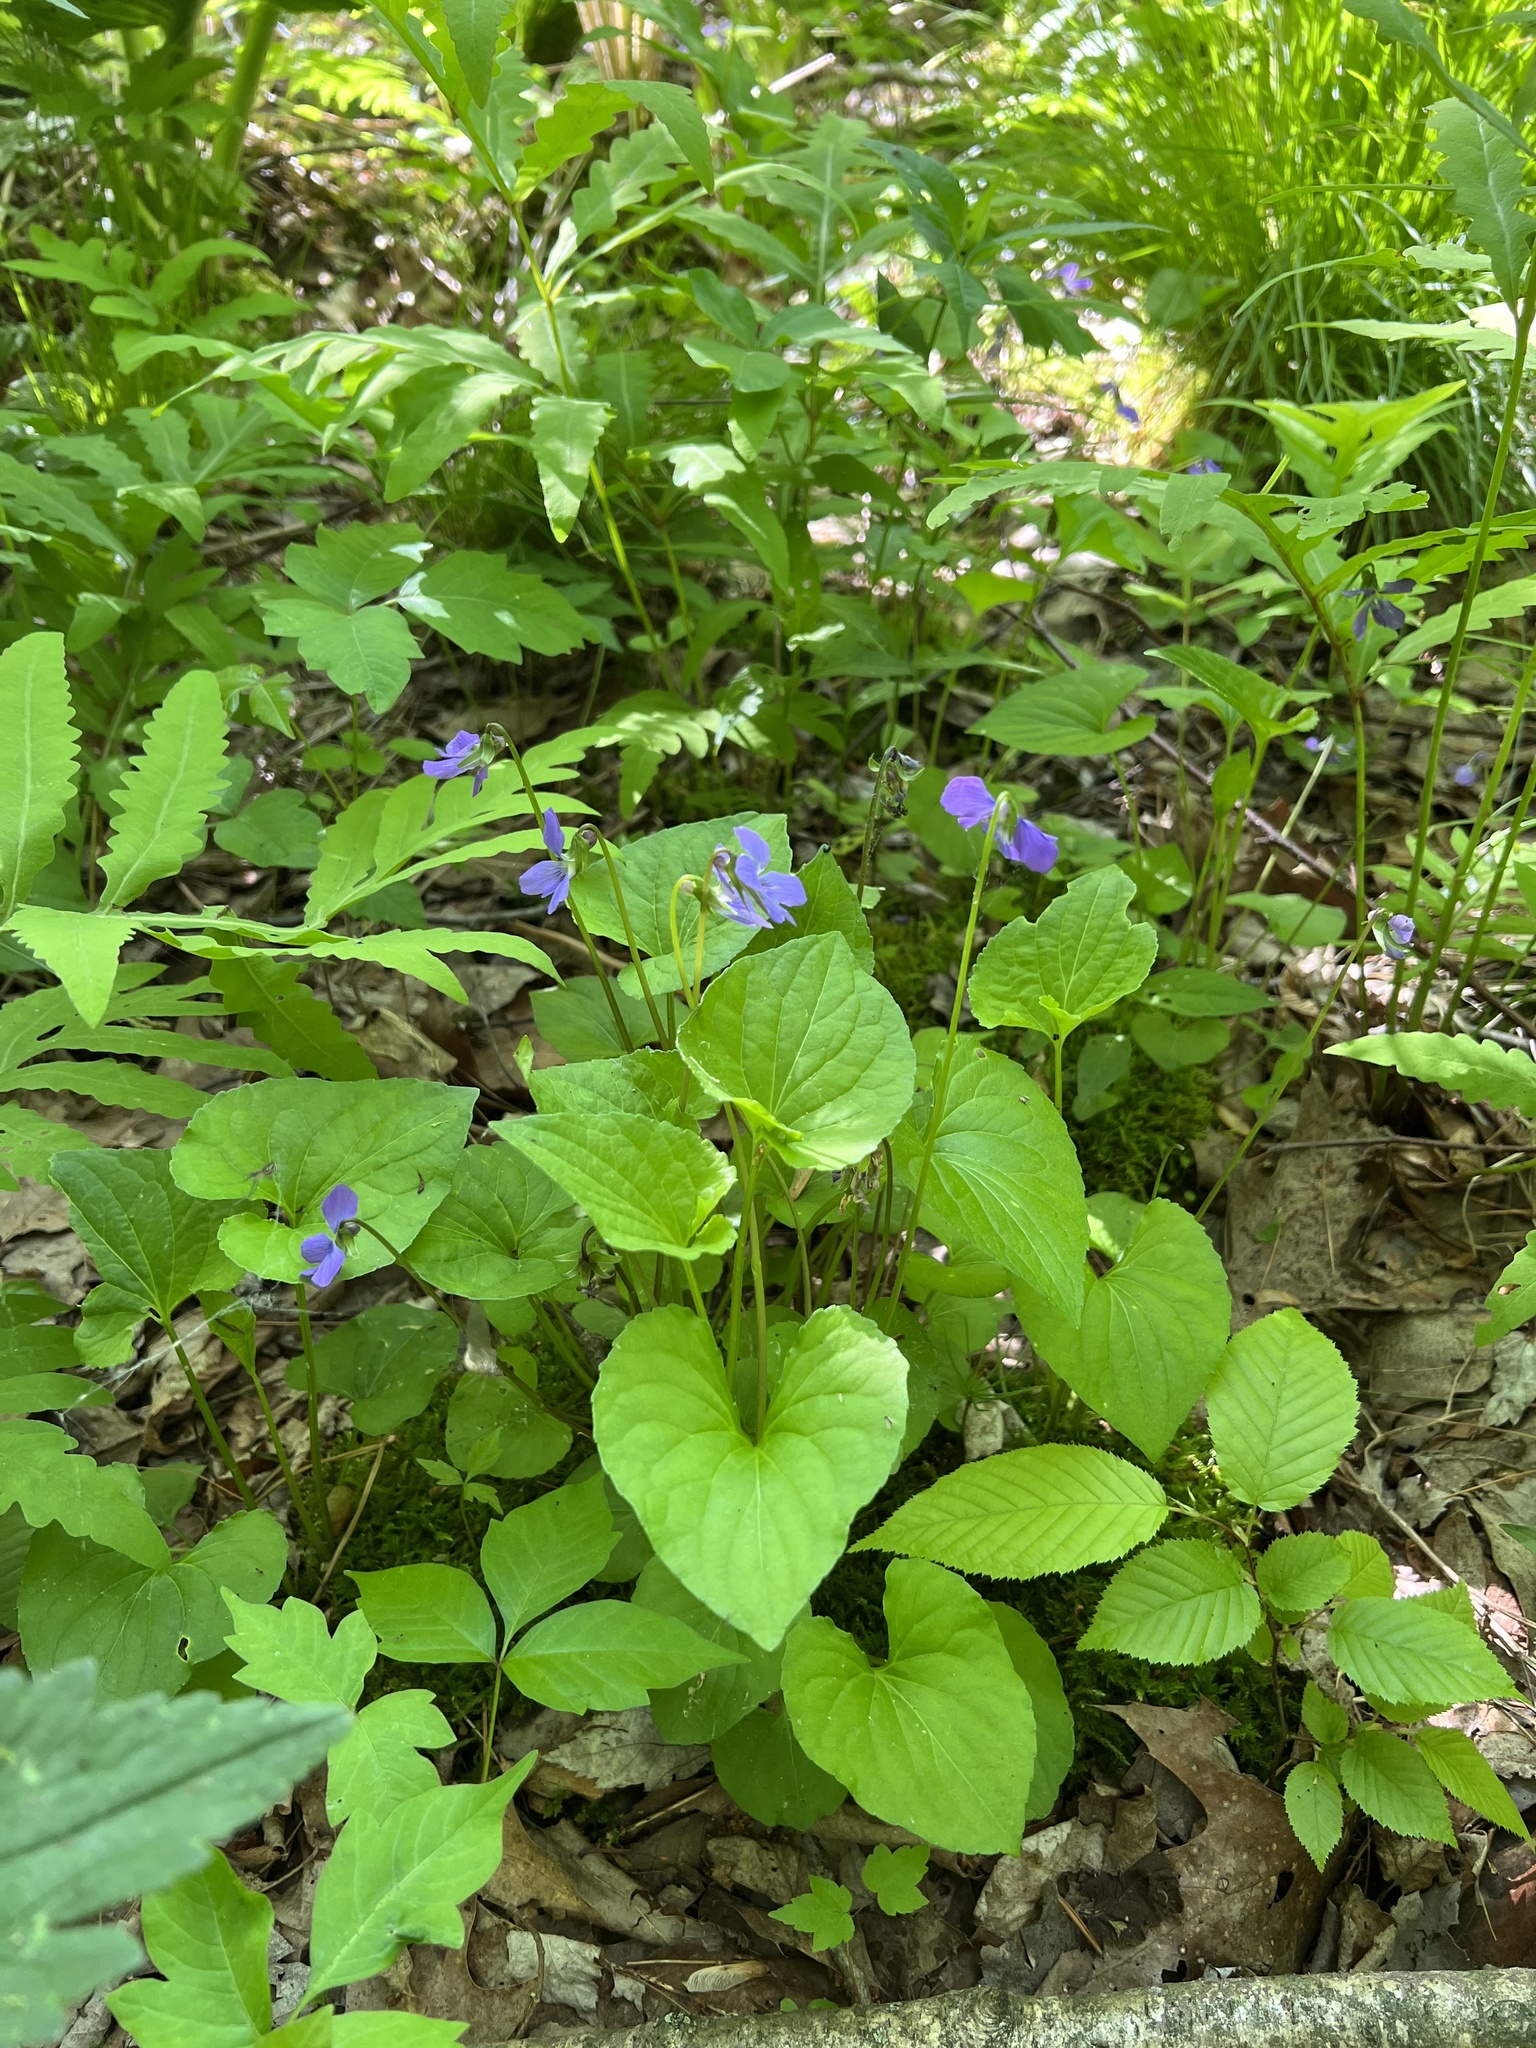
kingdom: Plantae
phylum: Tracheophyta
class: Magnoliopsida
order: Malpighiales
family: Violaceae
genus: Viola
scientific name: Viola cucullata
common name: Marsh blue violet
